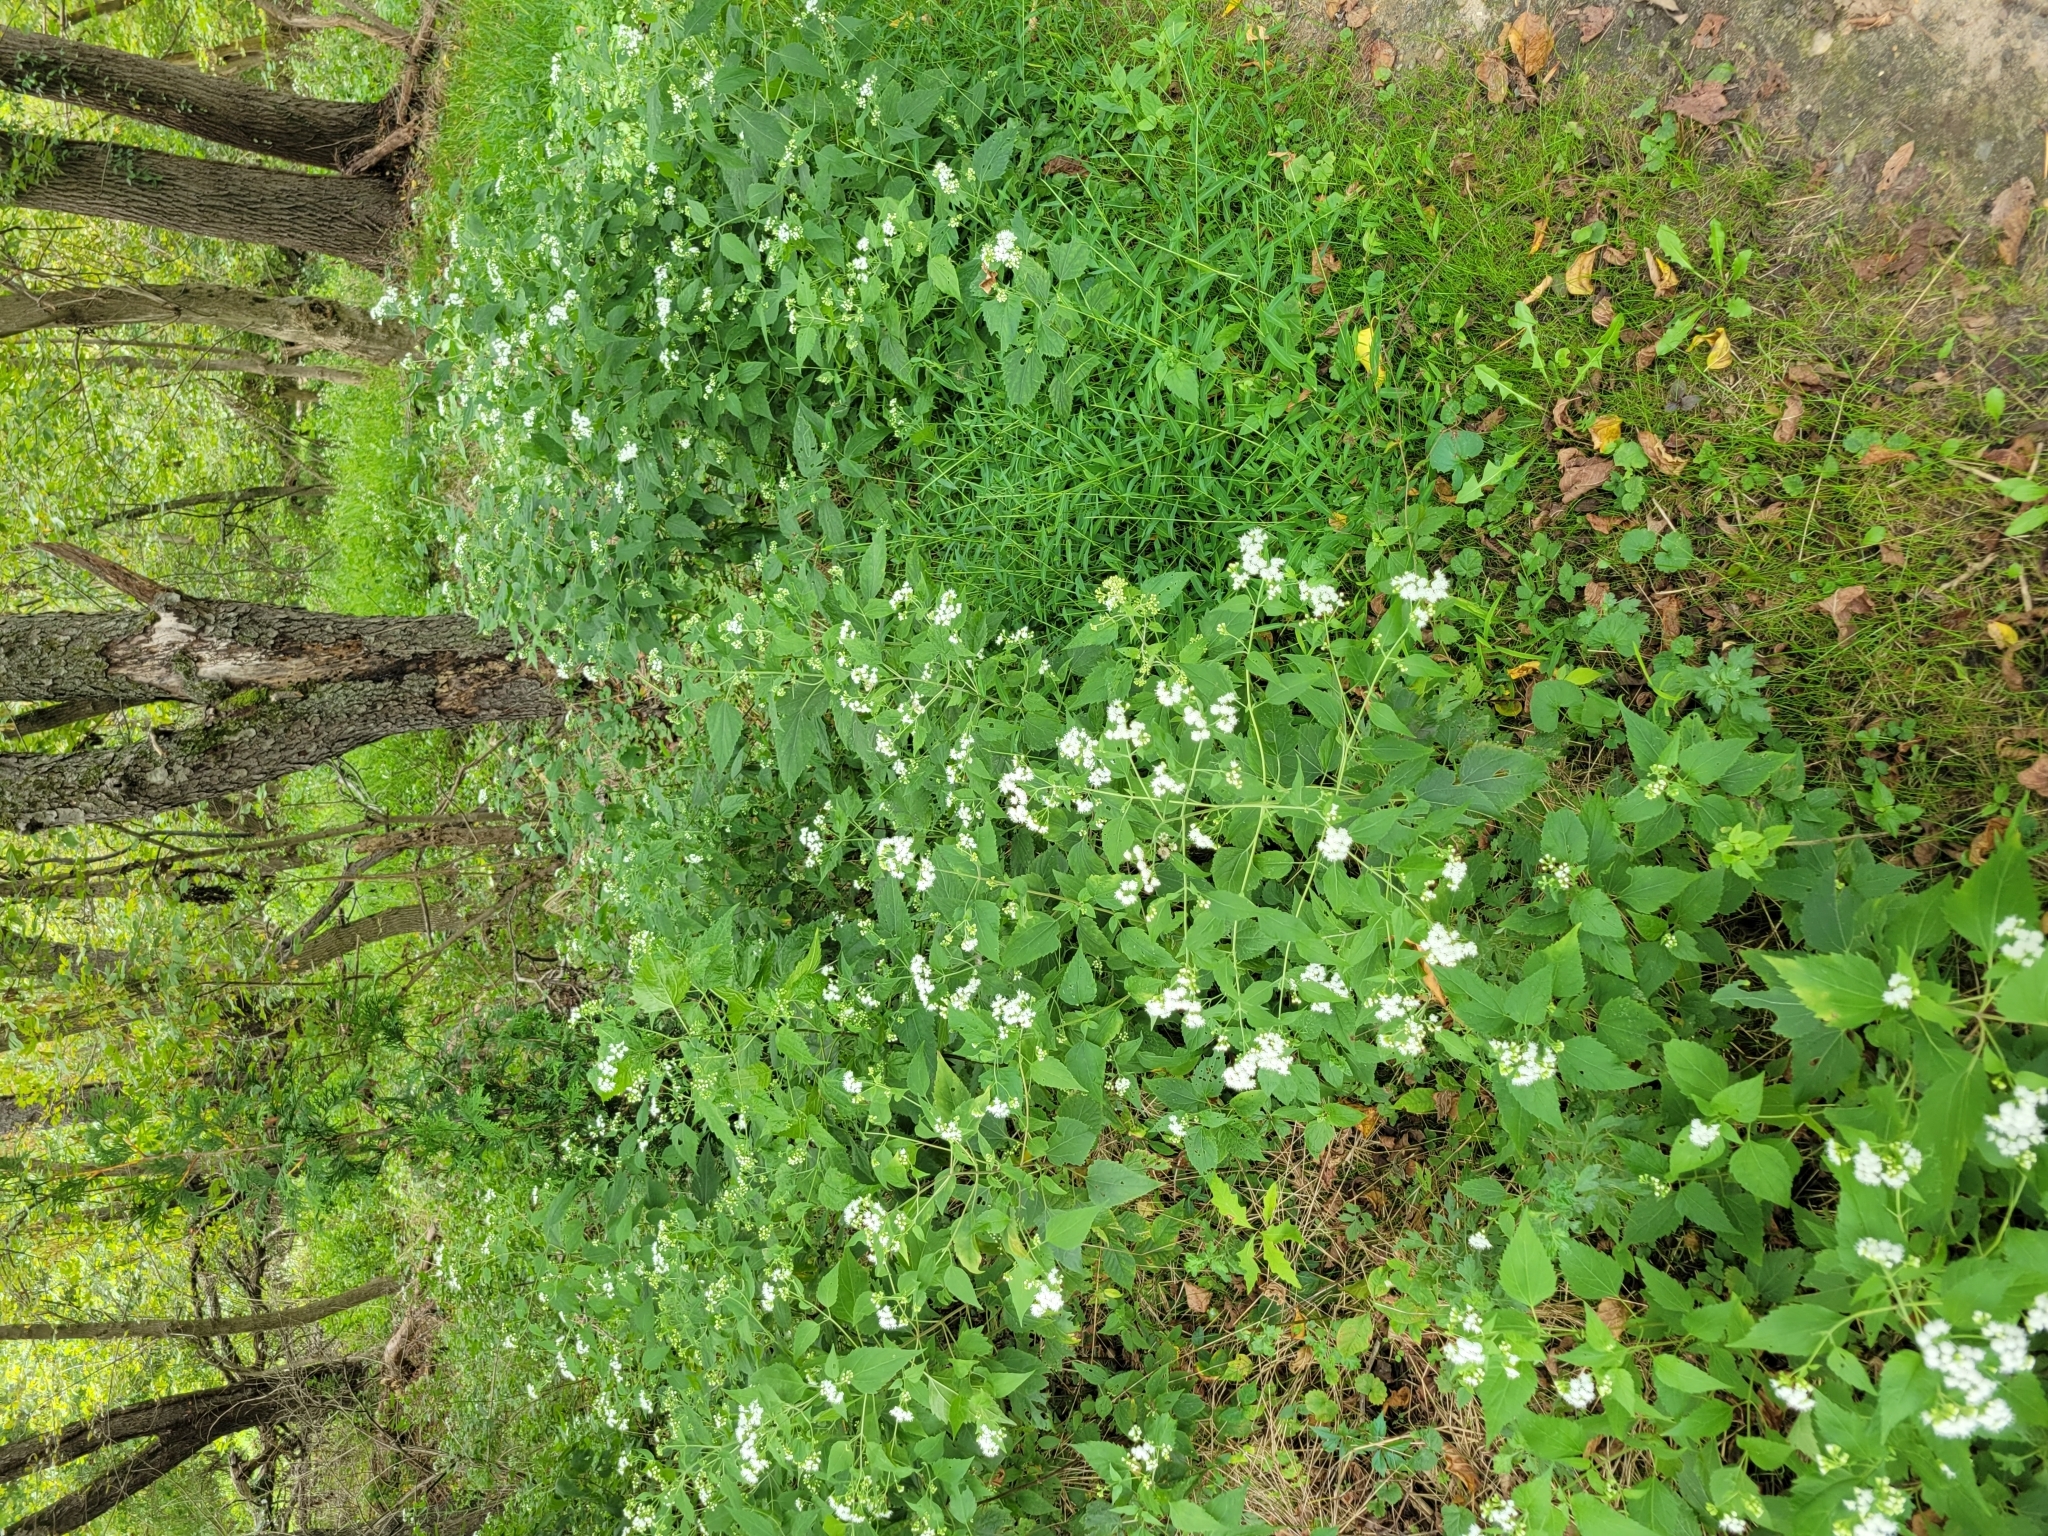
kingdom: Plantae
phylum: Tracheophyta
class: Magnoliopsida
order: Asterales
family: Asteraceae
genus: Ageratina
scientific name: Ageratina altissima
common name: White snakeroot
